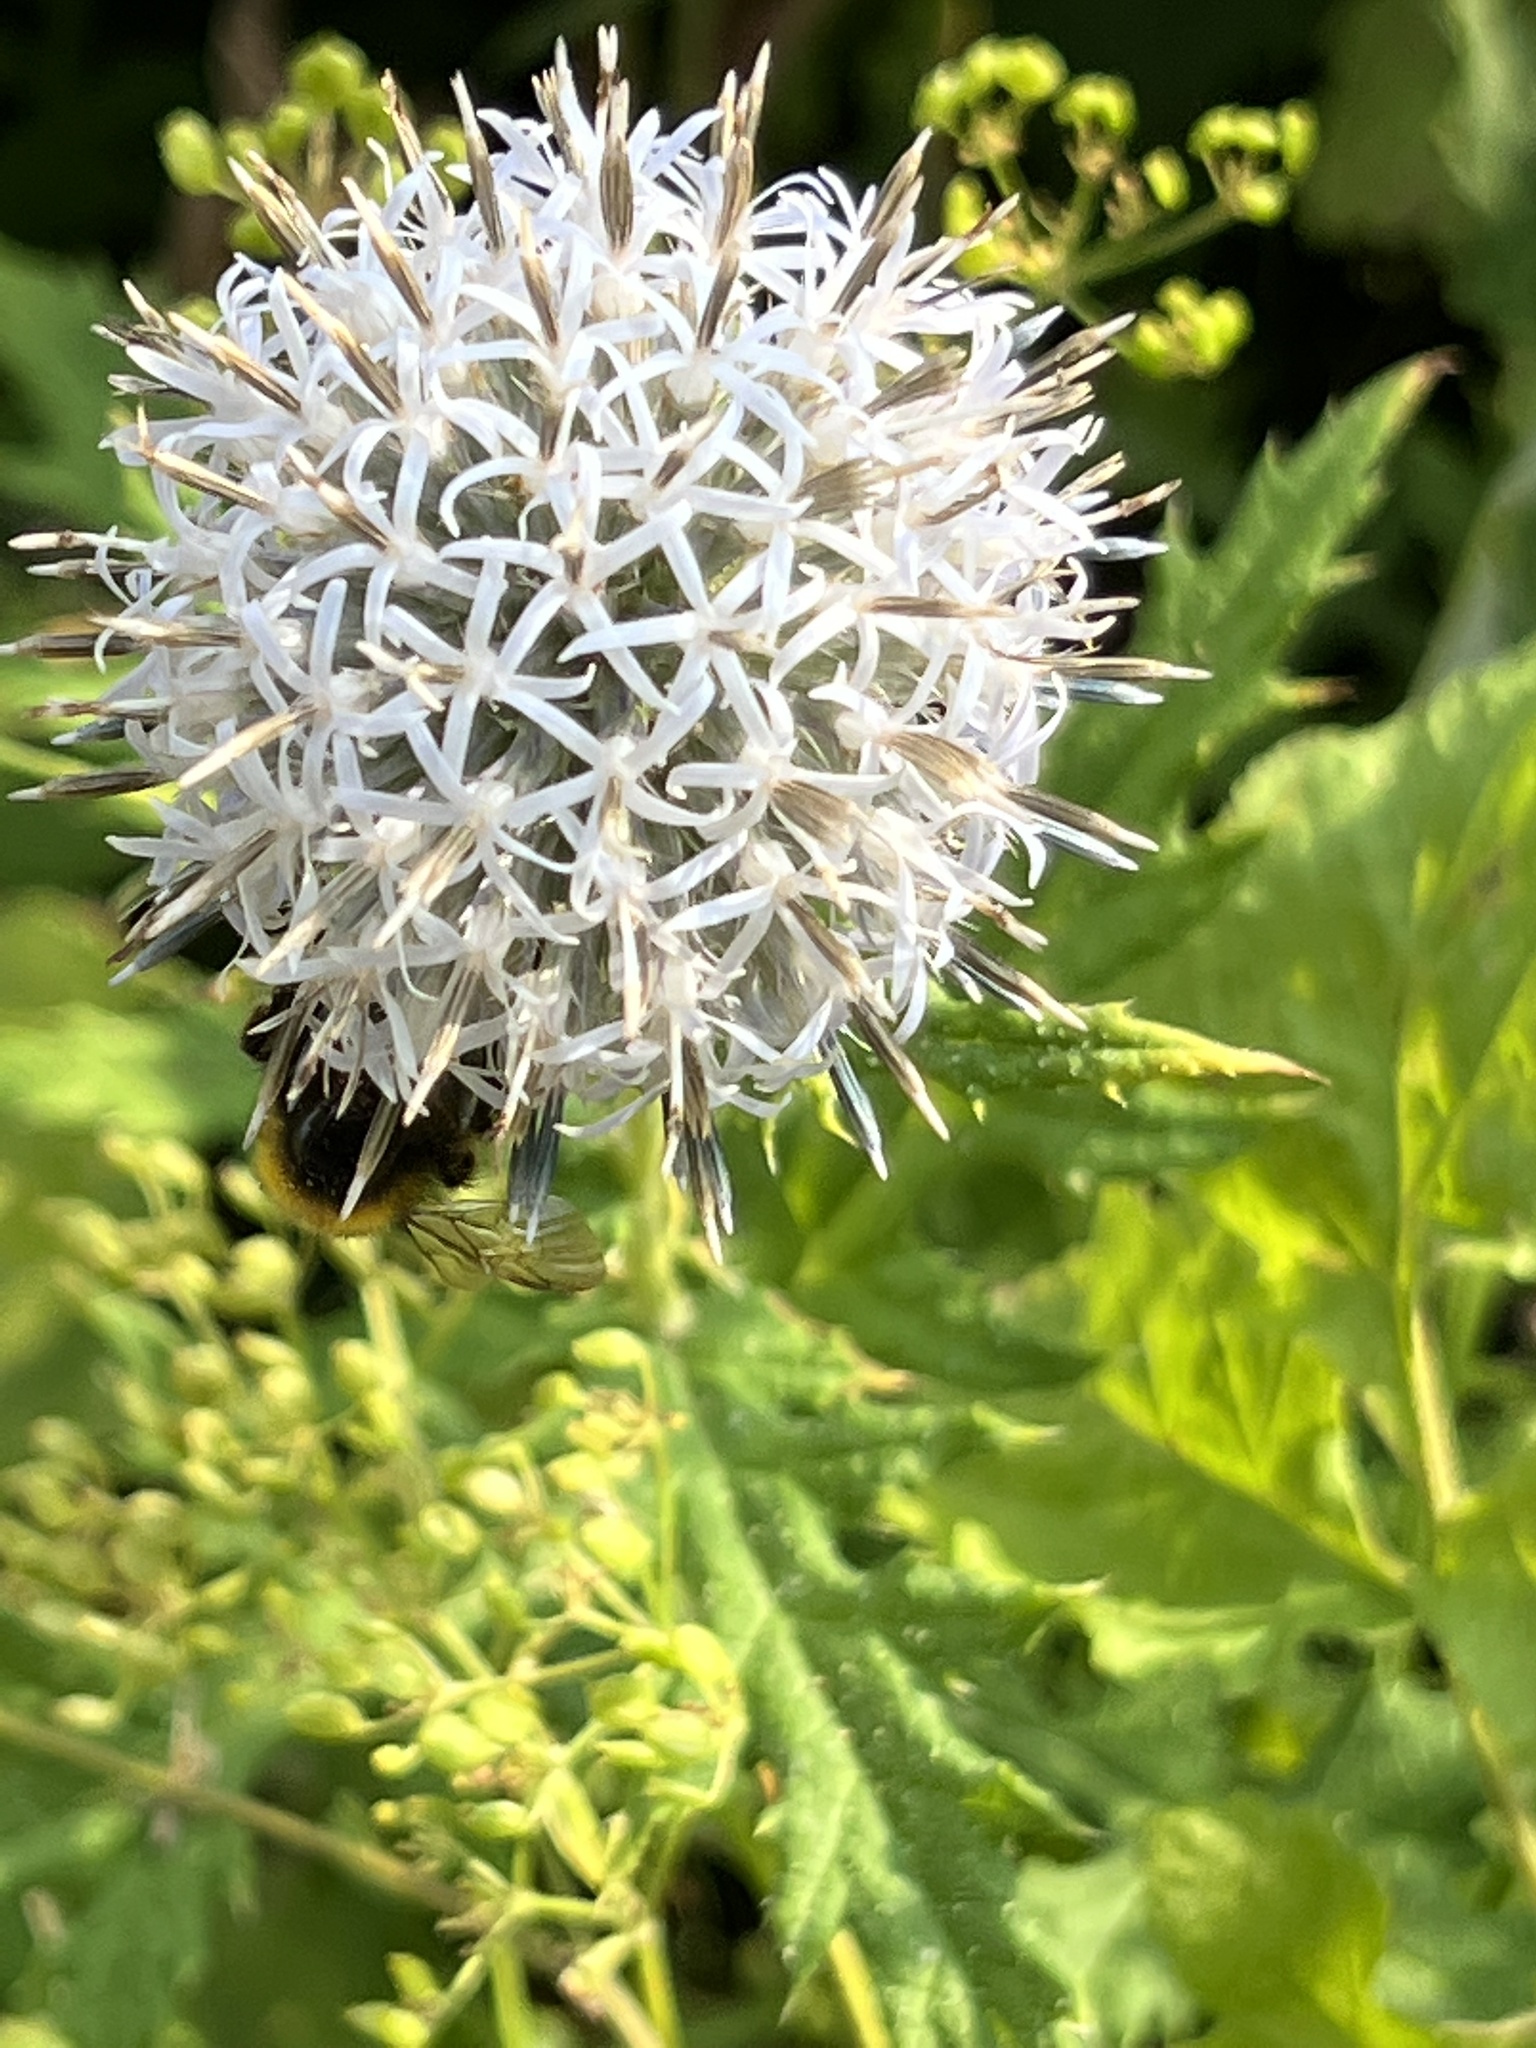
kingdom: Plantae
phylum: Tracheophyta
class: Magnoliopsida
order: Asterales
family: Asteraceae
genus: Echinops
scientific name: Echinops sphaerocephalus
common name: Glandular globe-thistle
